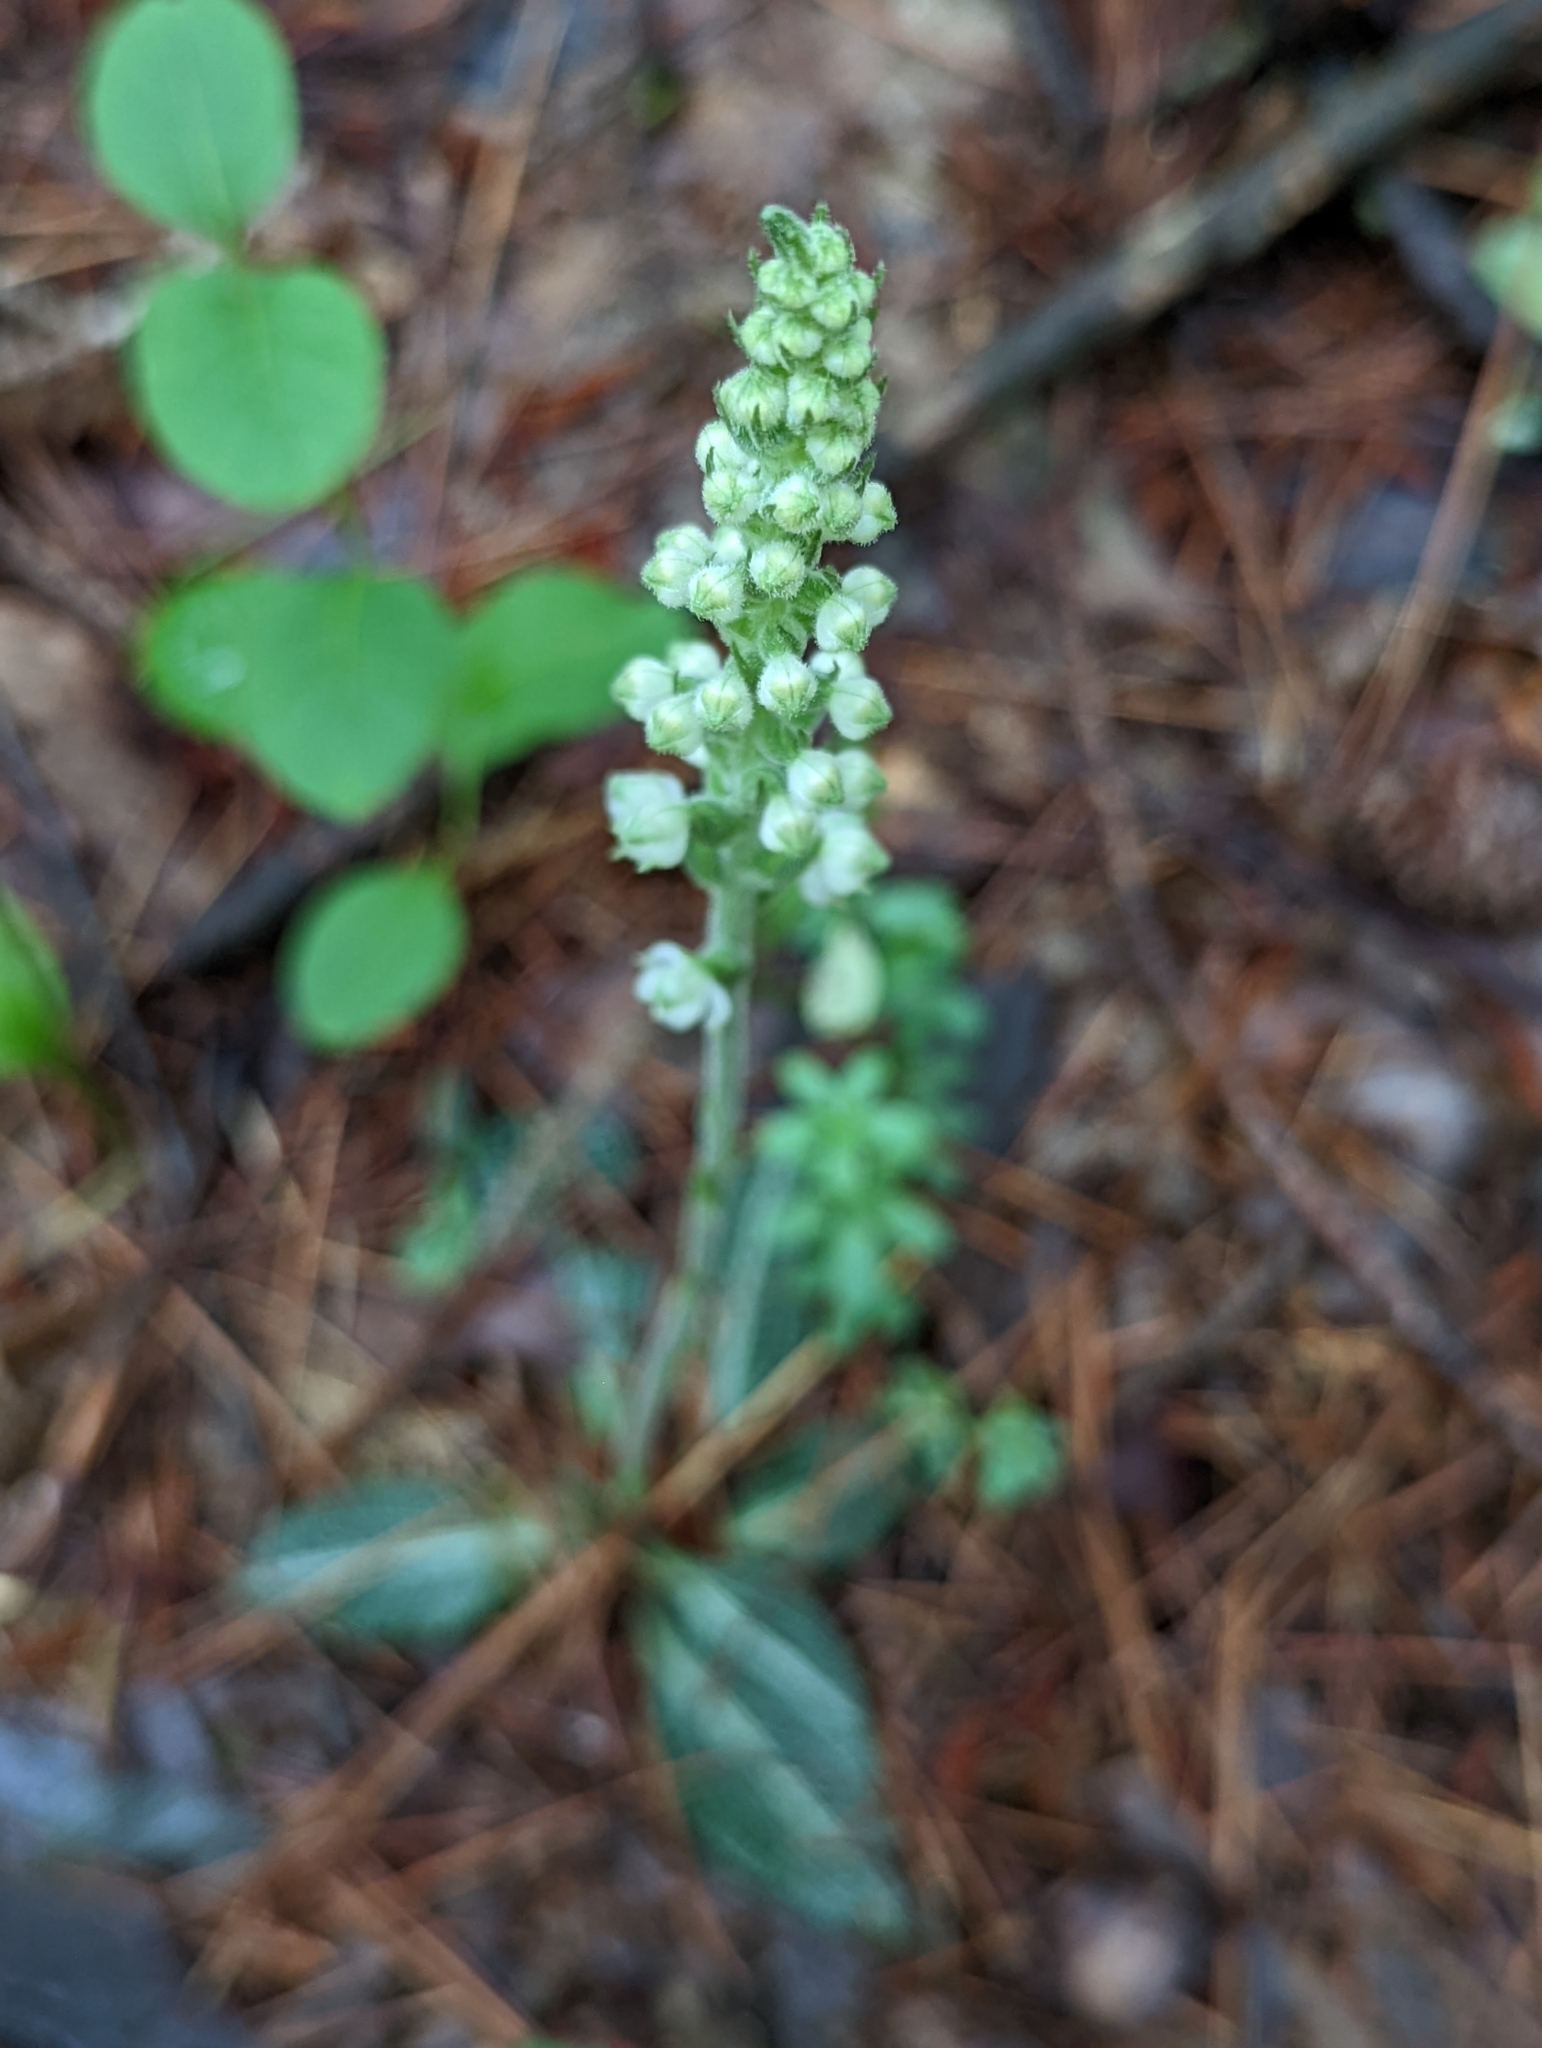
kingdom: Plantae
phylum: Tracheophyta
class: Liliopsida
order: Asparagales
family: Orchidaceae
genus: Goodyera
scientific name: Goodyera pubescens
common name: Downy rattlesnake-plantain
